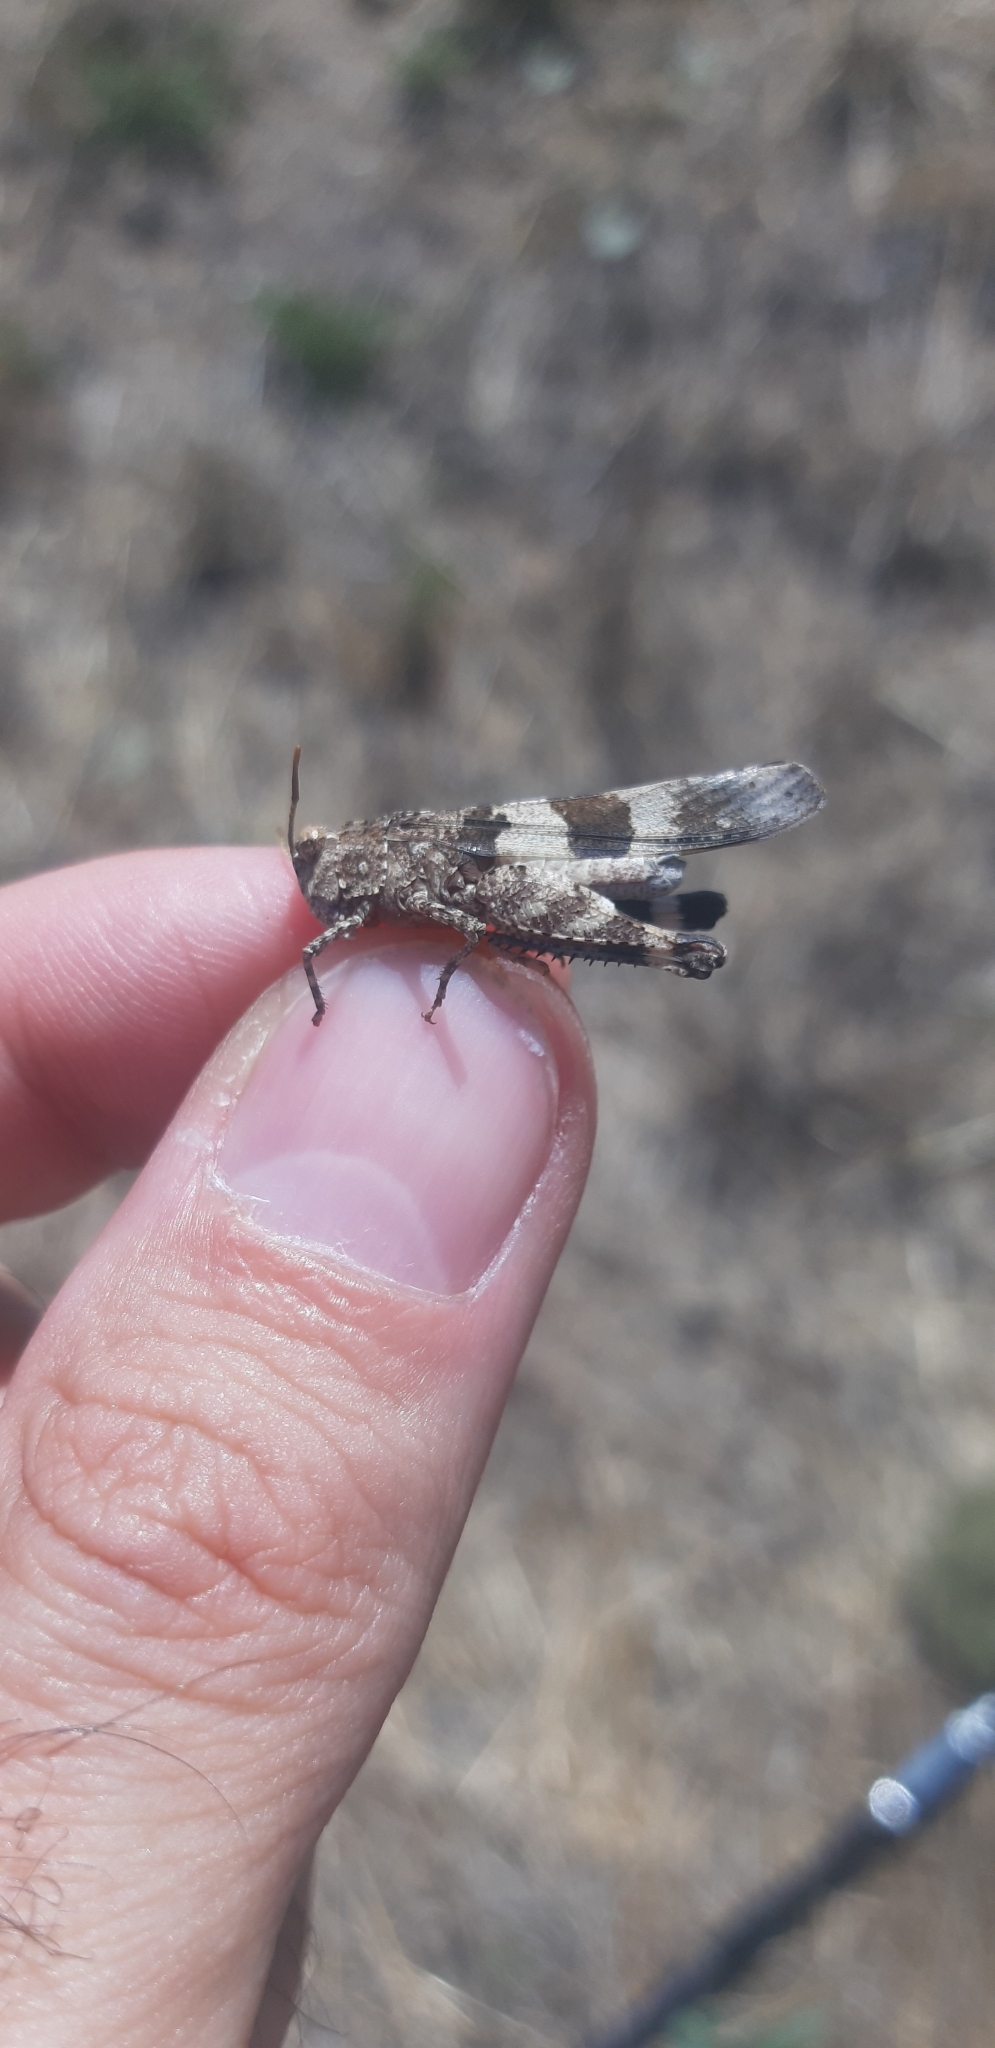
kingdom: Animalia
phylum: Arthropoda
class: Insecta
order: Orthoptera
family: Acrididae
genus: Oedipoda
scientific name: Oedipoda caerulescens
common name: Blue-winged grasshopper
